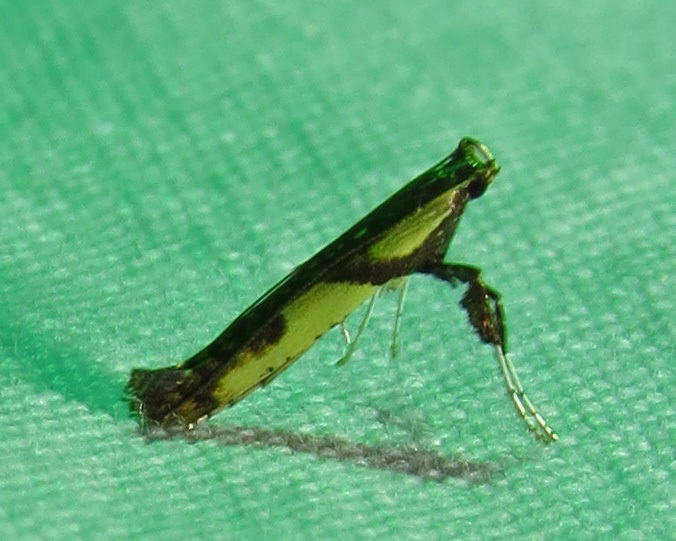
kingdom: Animalia
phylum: Arthropoda
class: Insecta
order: Lepidoptera
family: Gracillariidae
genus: Caloptilia
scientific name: Caloptilia blandella
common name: Walnut caloptilia moth
